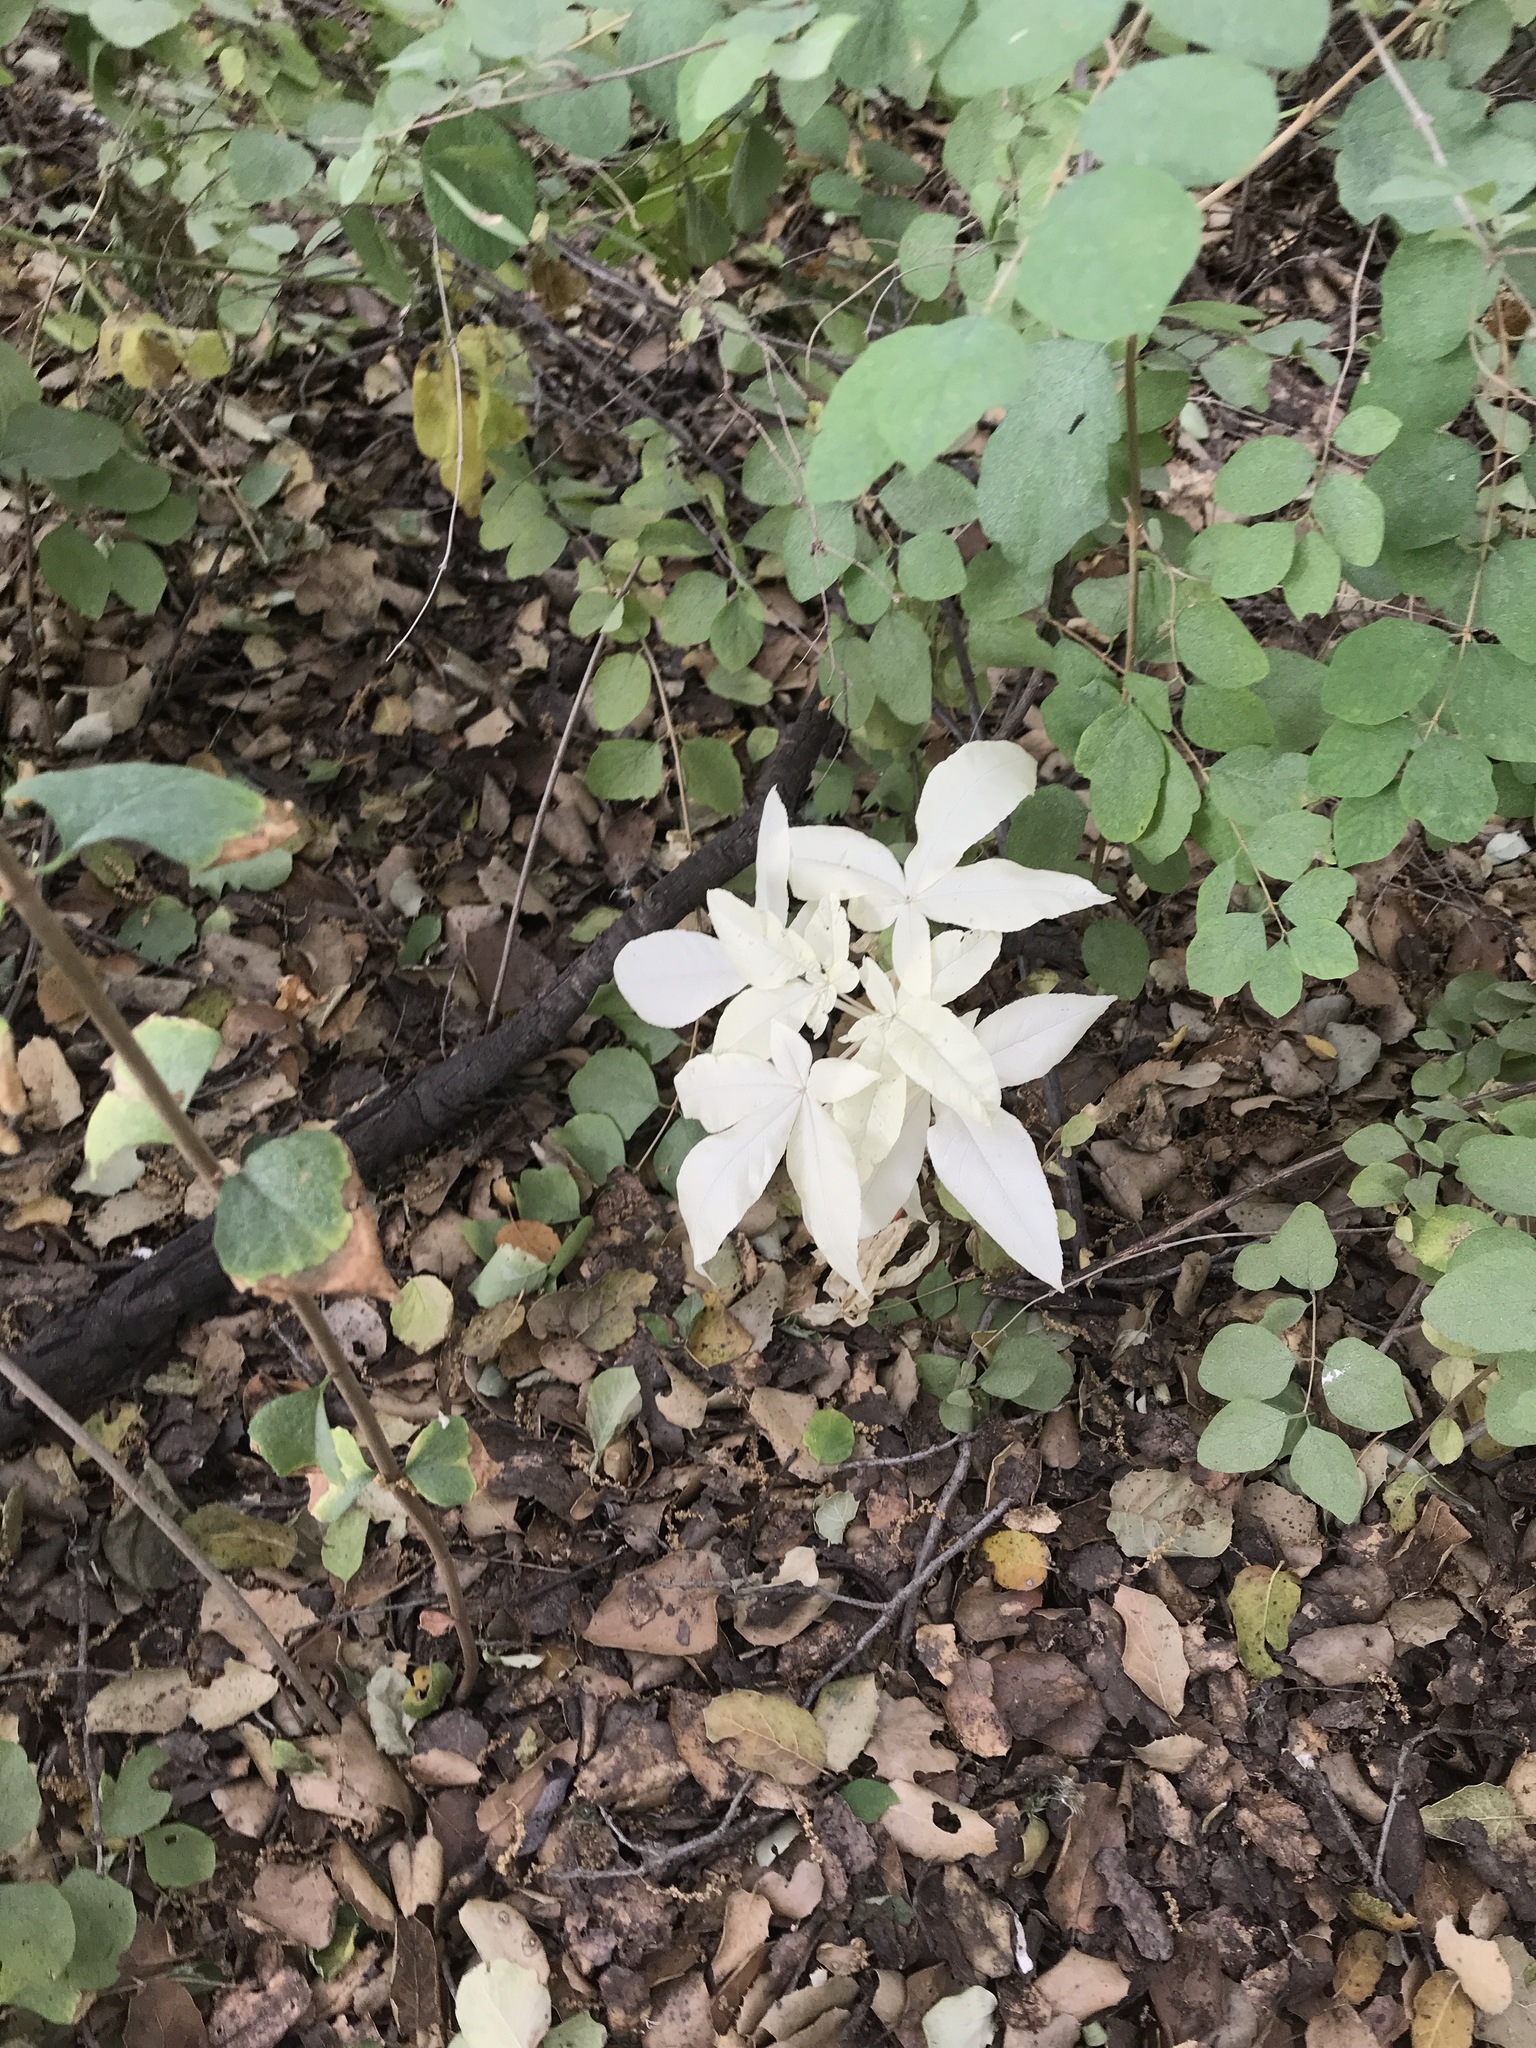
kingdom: Plantae
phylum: Tracheophyta
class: Magnoliopsida
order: Sapindales
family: Sapindaceae
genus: Aesculus
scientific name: Aesculus californica
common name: California buckeye
